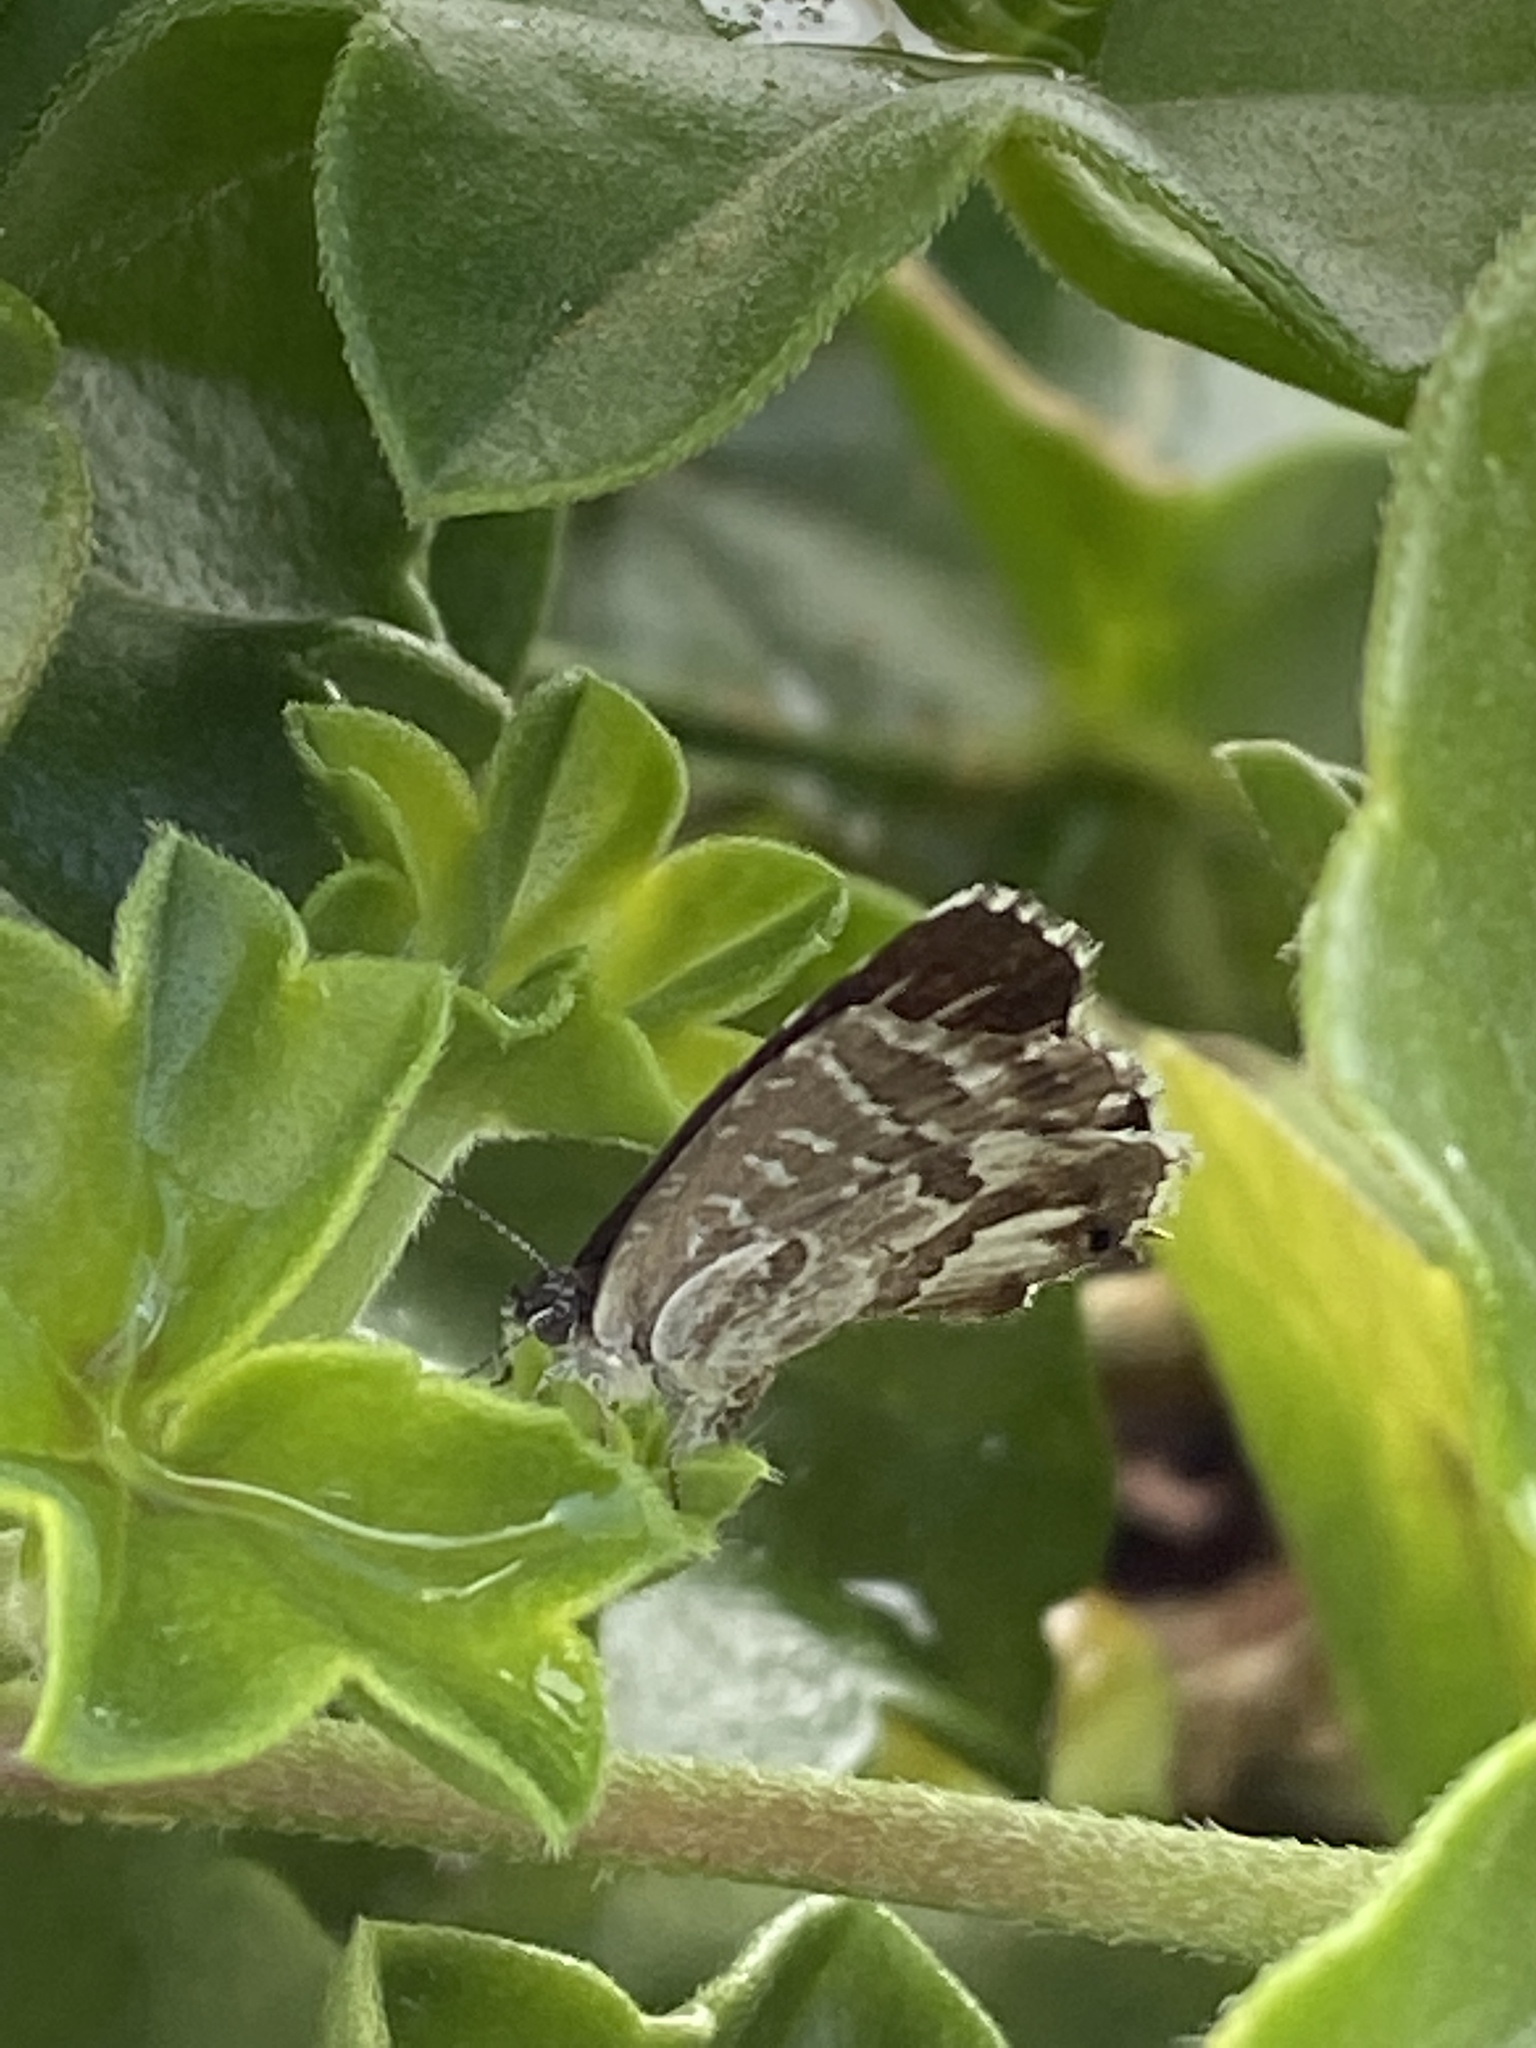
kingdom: Animalia
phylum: Arthropoda
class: Insecta
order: Lepidoptera
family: Lycaenidae
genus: Cacyreus
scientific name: Cacyreus marshalli
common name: Geranium bronze
